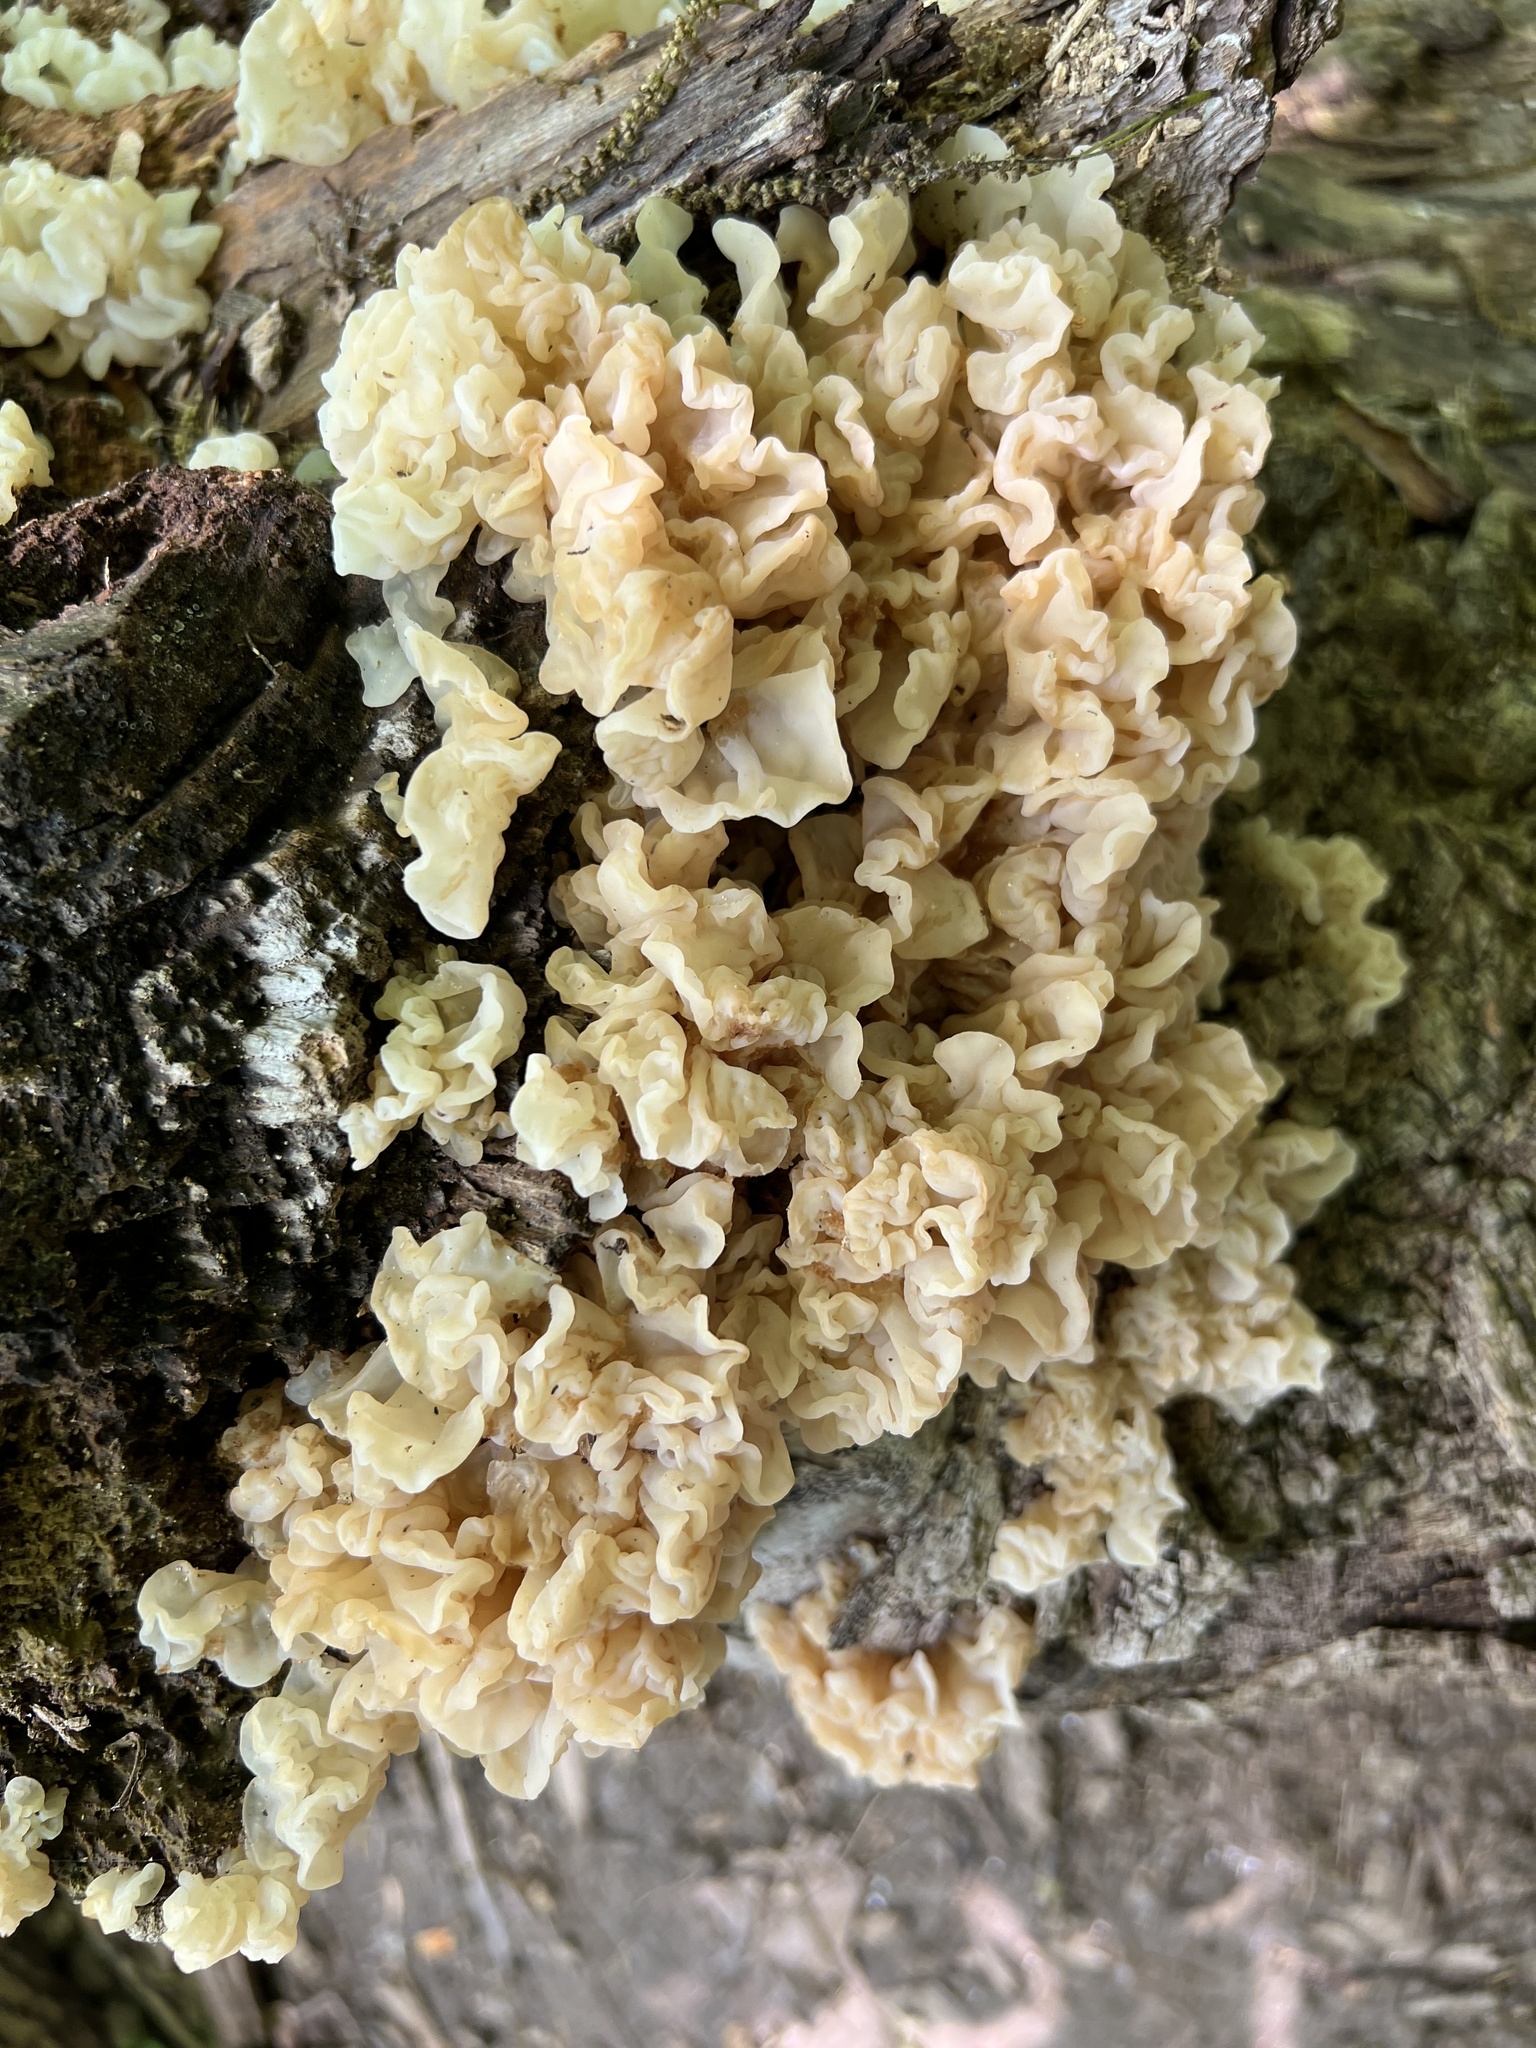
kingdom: Fungi
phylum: Basidiomycota
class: Agaricomycetes
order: Auriculariales
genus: Ductifera
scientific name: Ductifera pululahuana
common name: White jelly fungus
